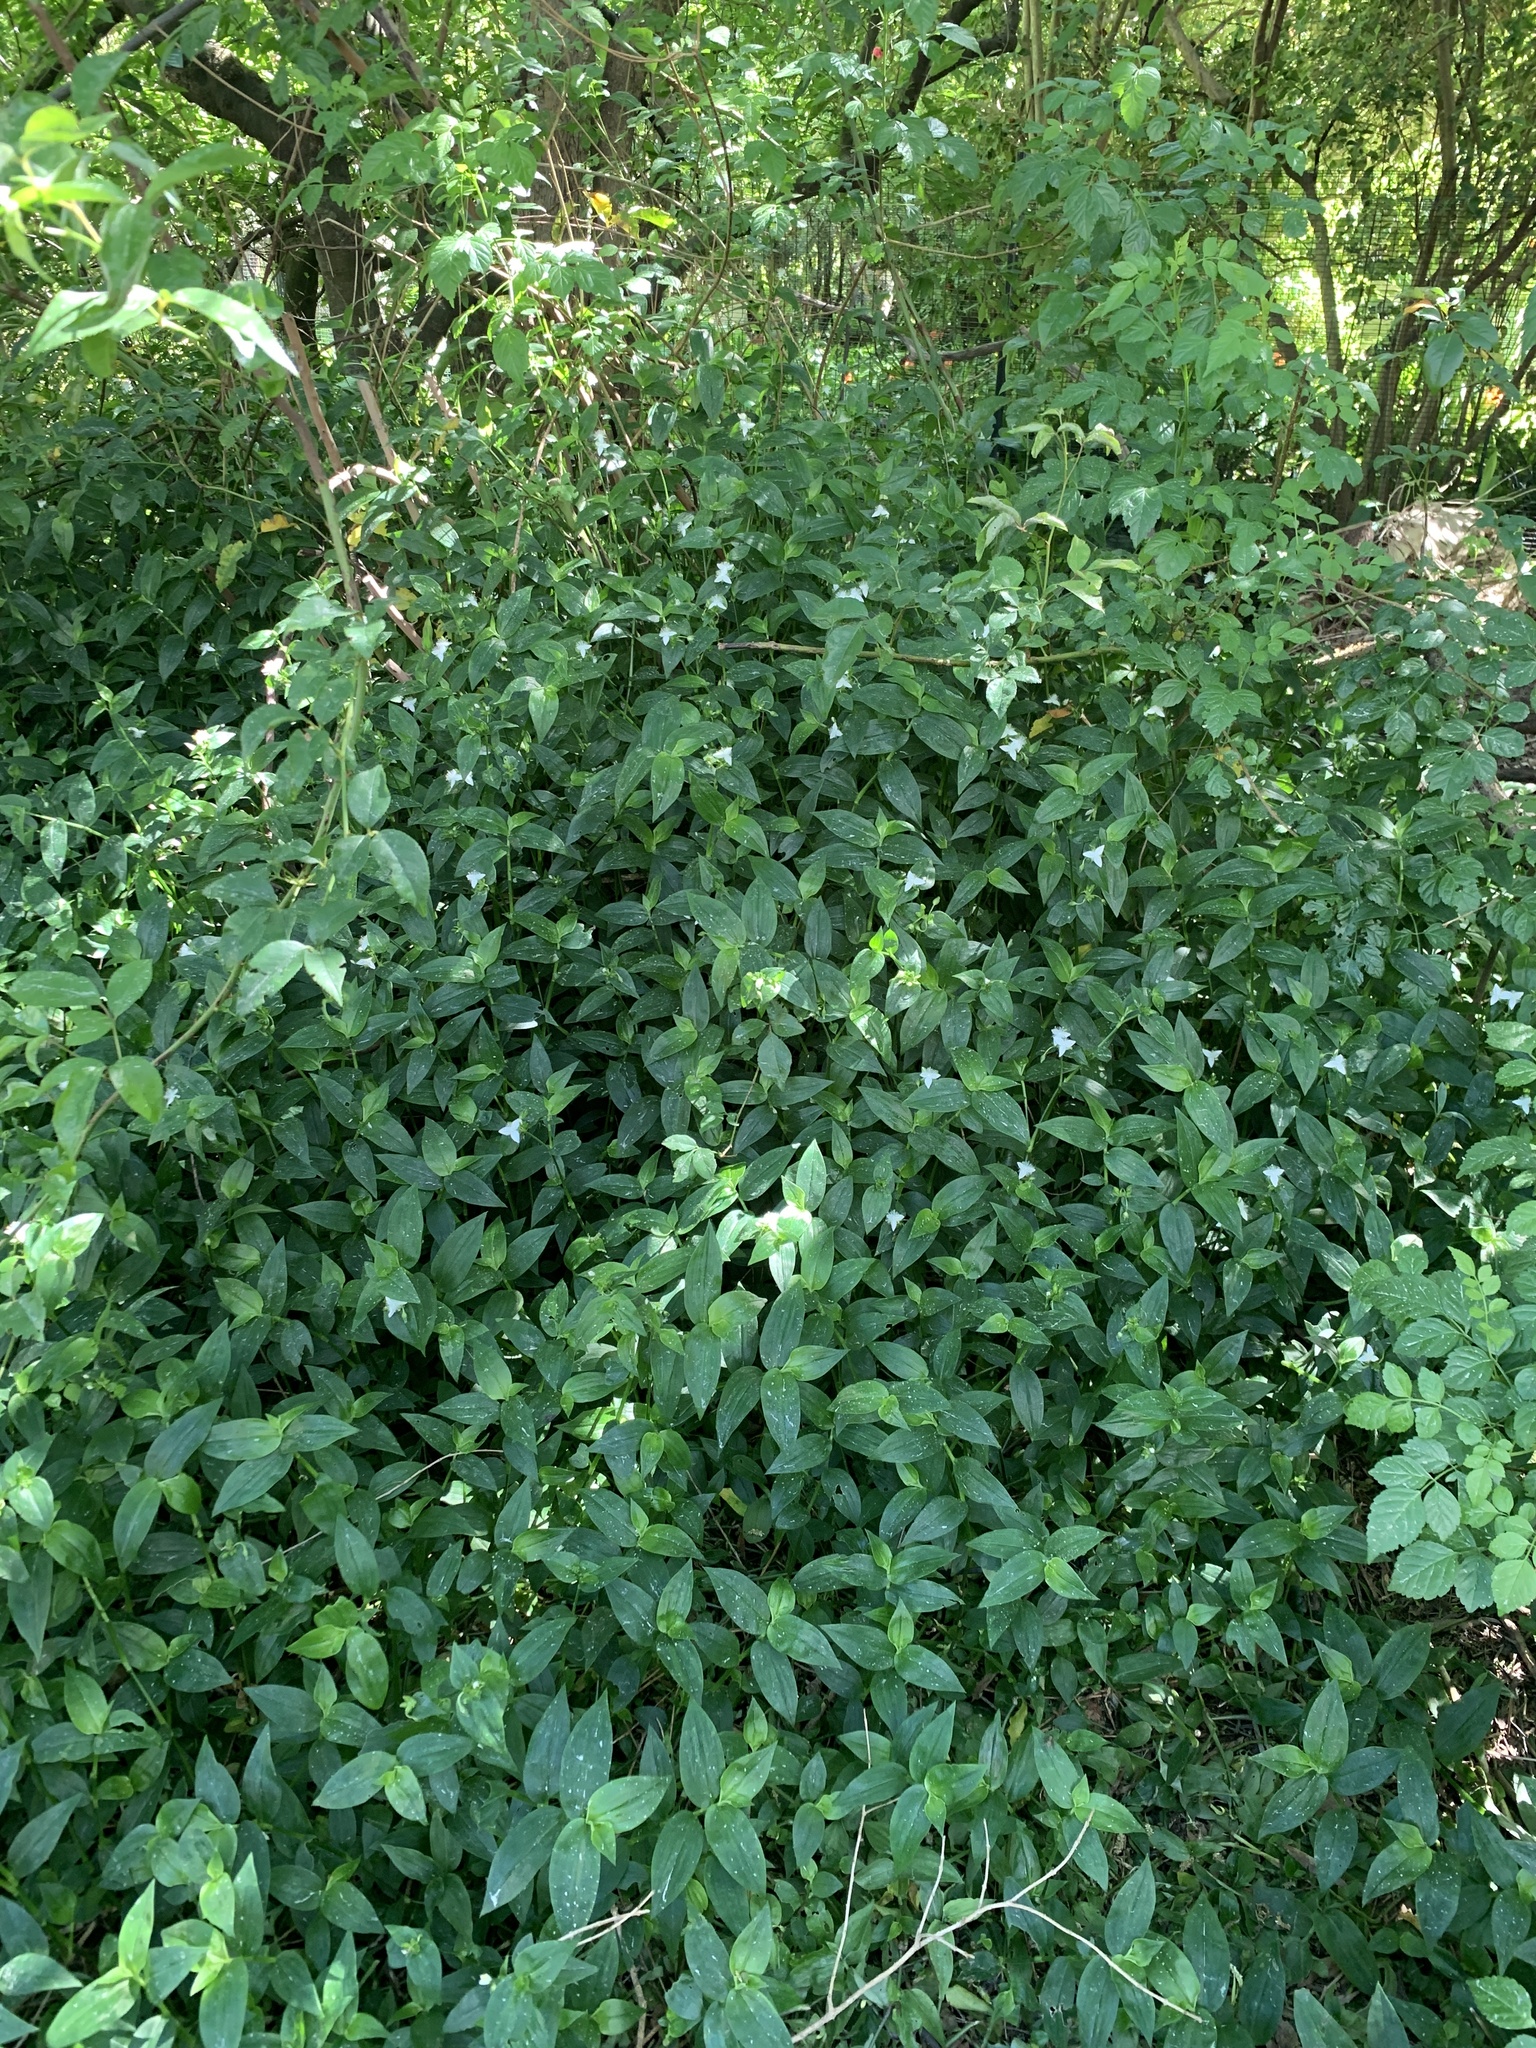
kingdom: Plantae
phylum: Tracheophyta
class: Liliopsida
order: Commelinales
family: Commelinaceae
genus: Tradescantia
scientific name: Tradescantia fluminensis
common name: Wandering-jew
